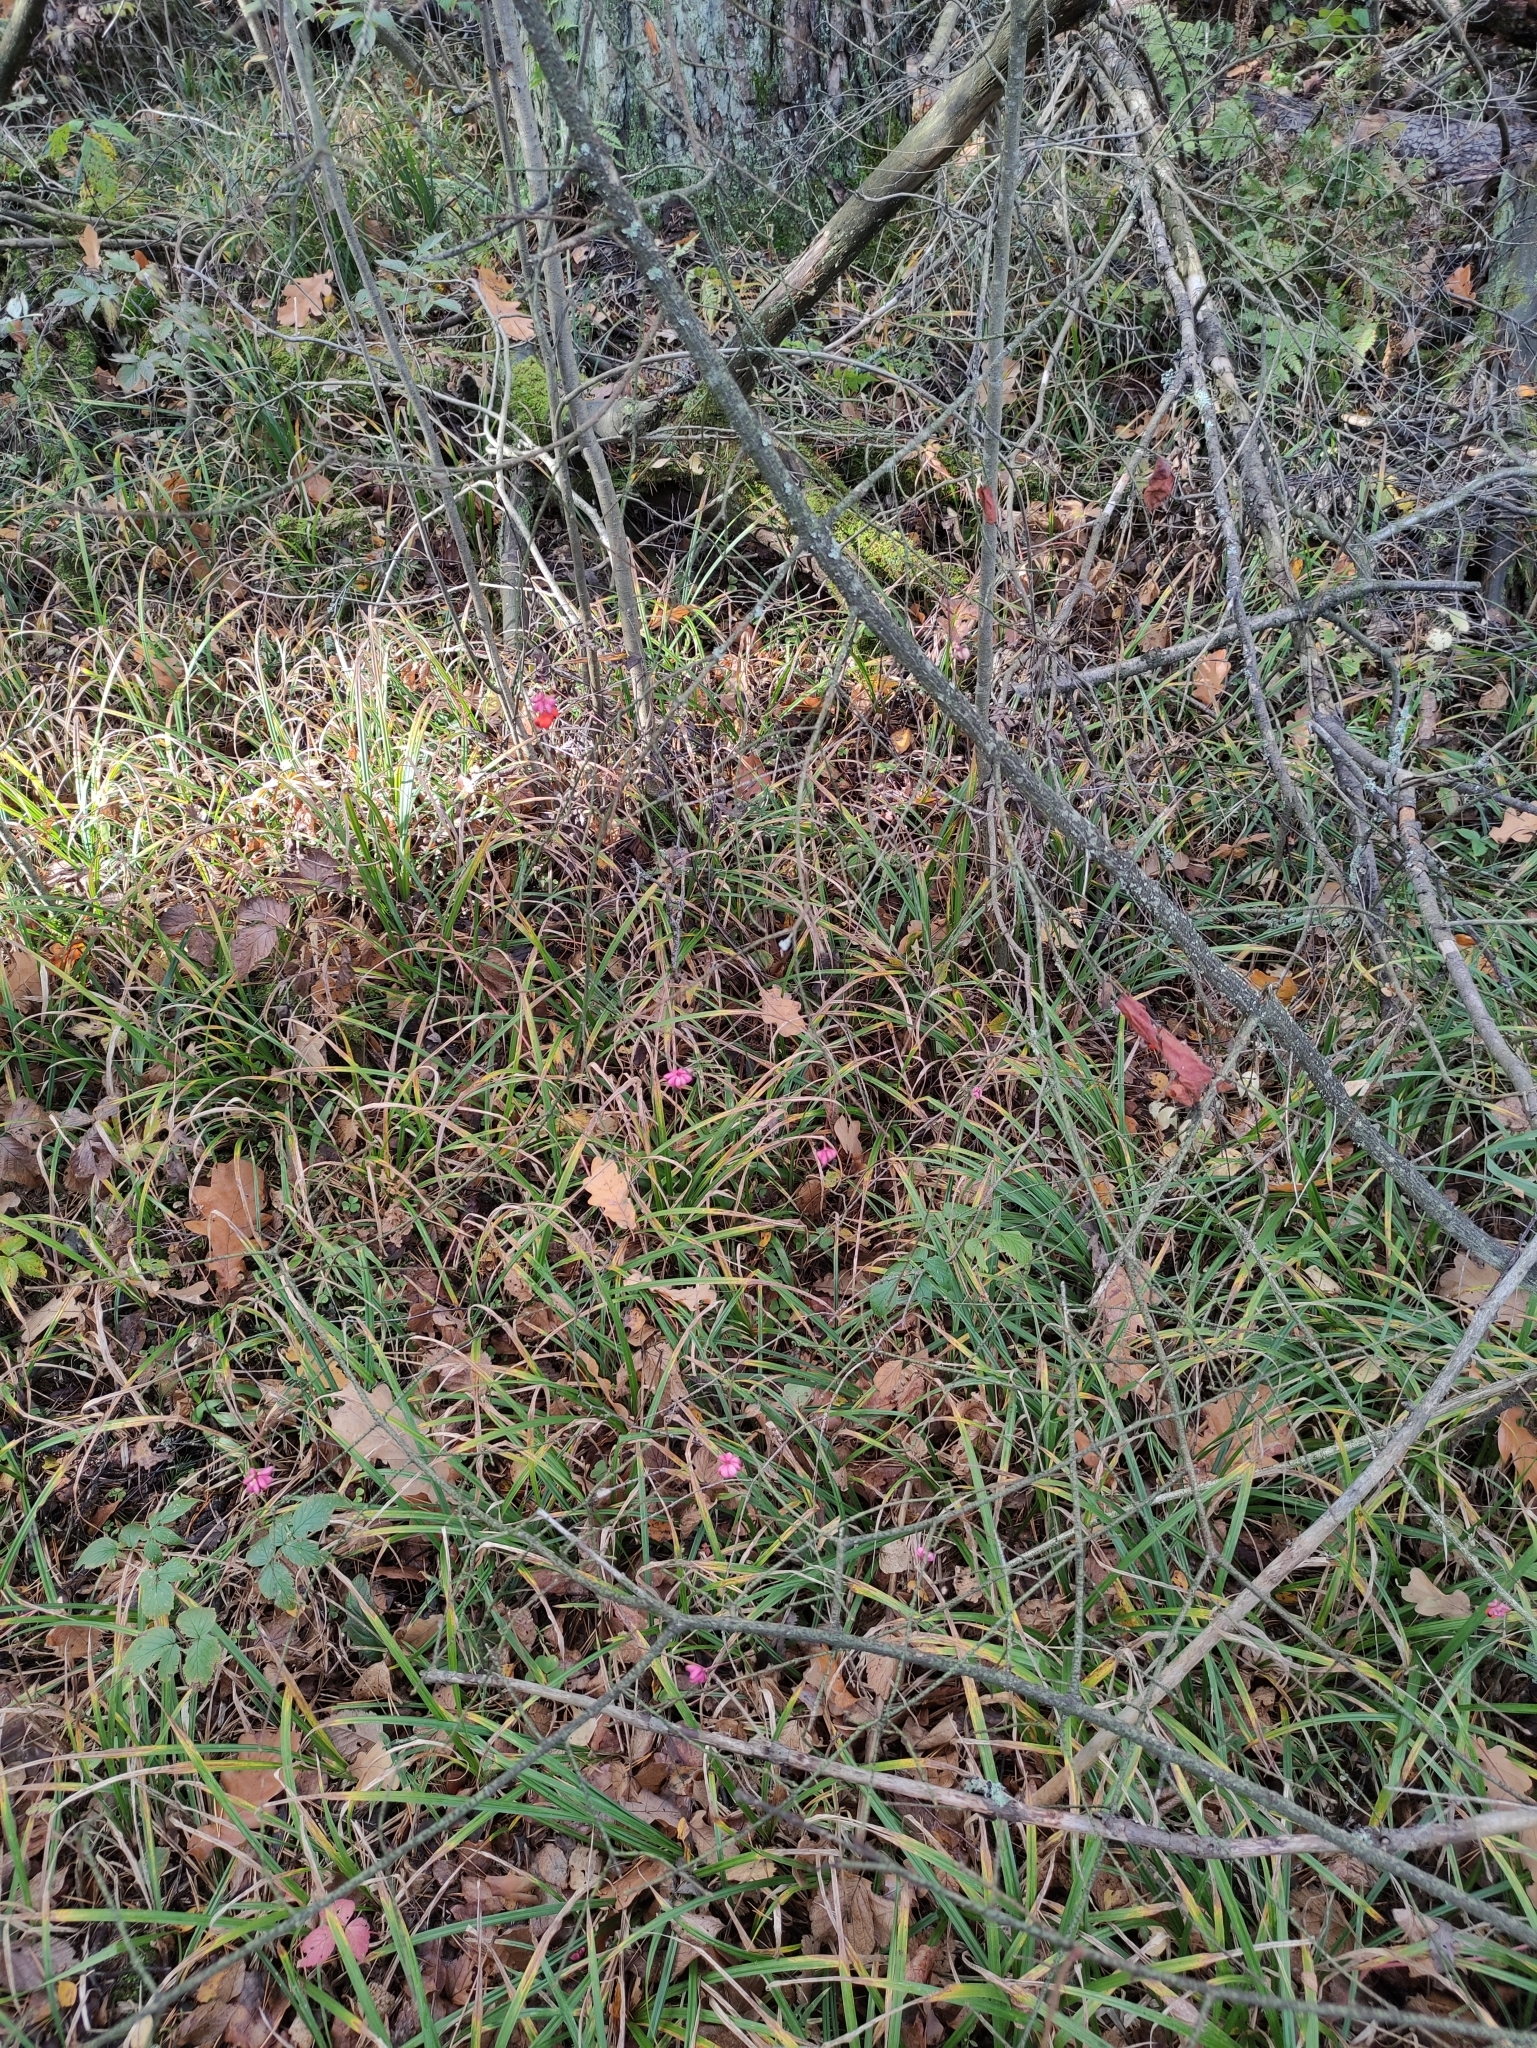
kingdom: Plantae
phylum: Tracheophyta
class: Magnoliopsida
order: Celastrales
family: Celastraceae
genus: Euonymus
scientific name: Euonymus verrucosus
